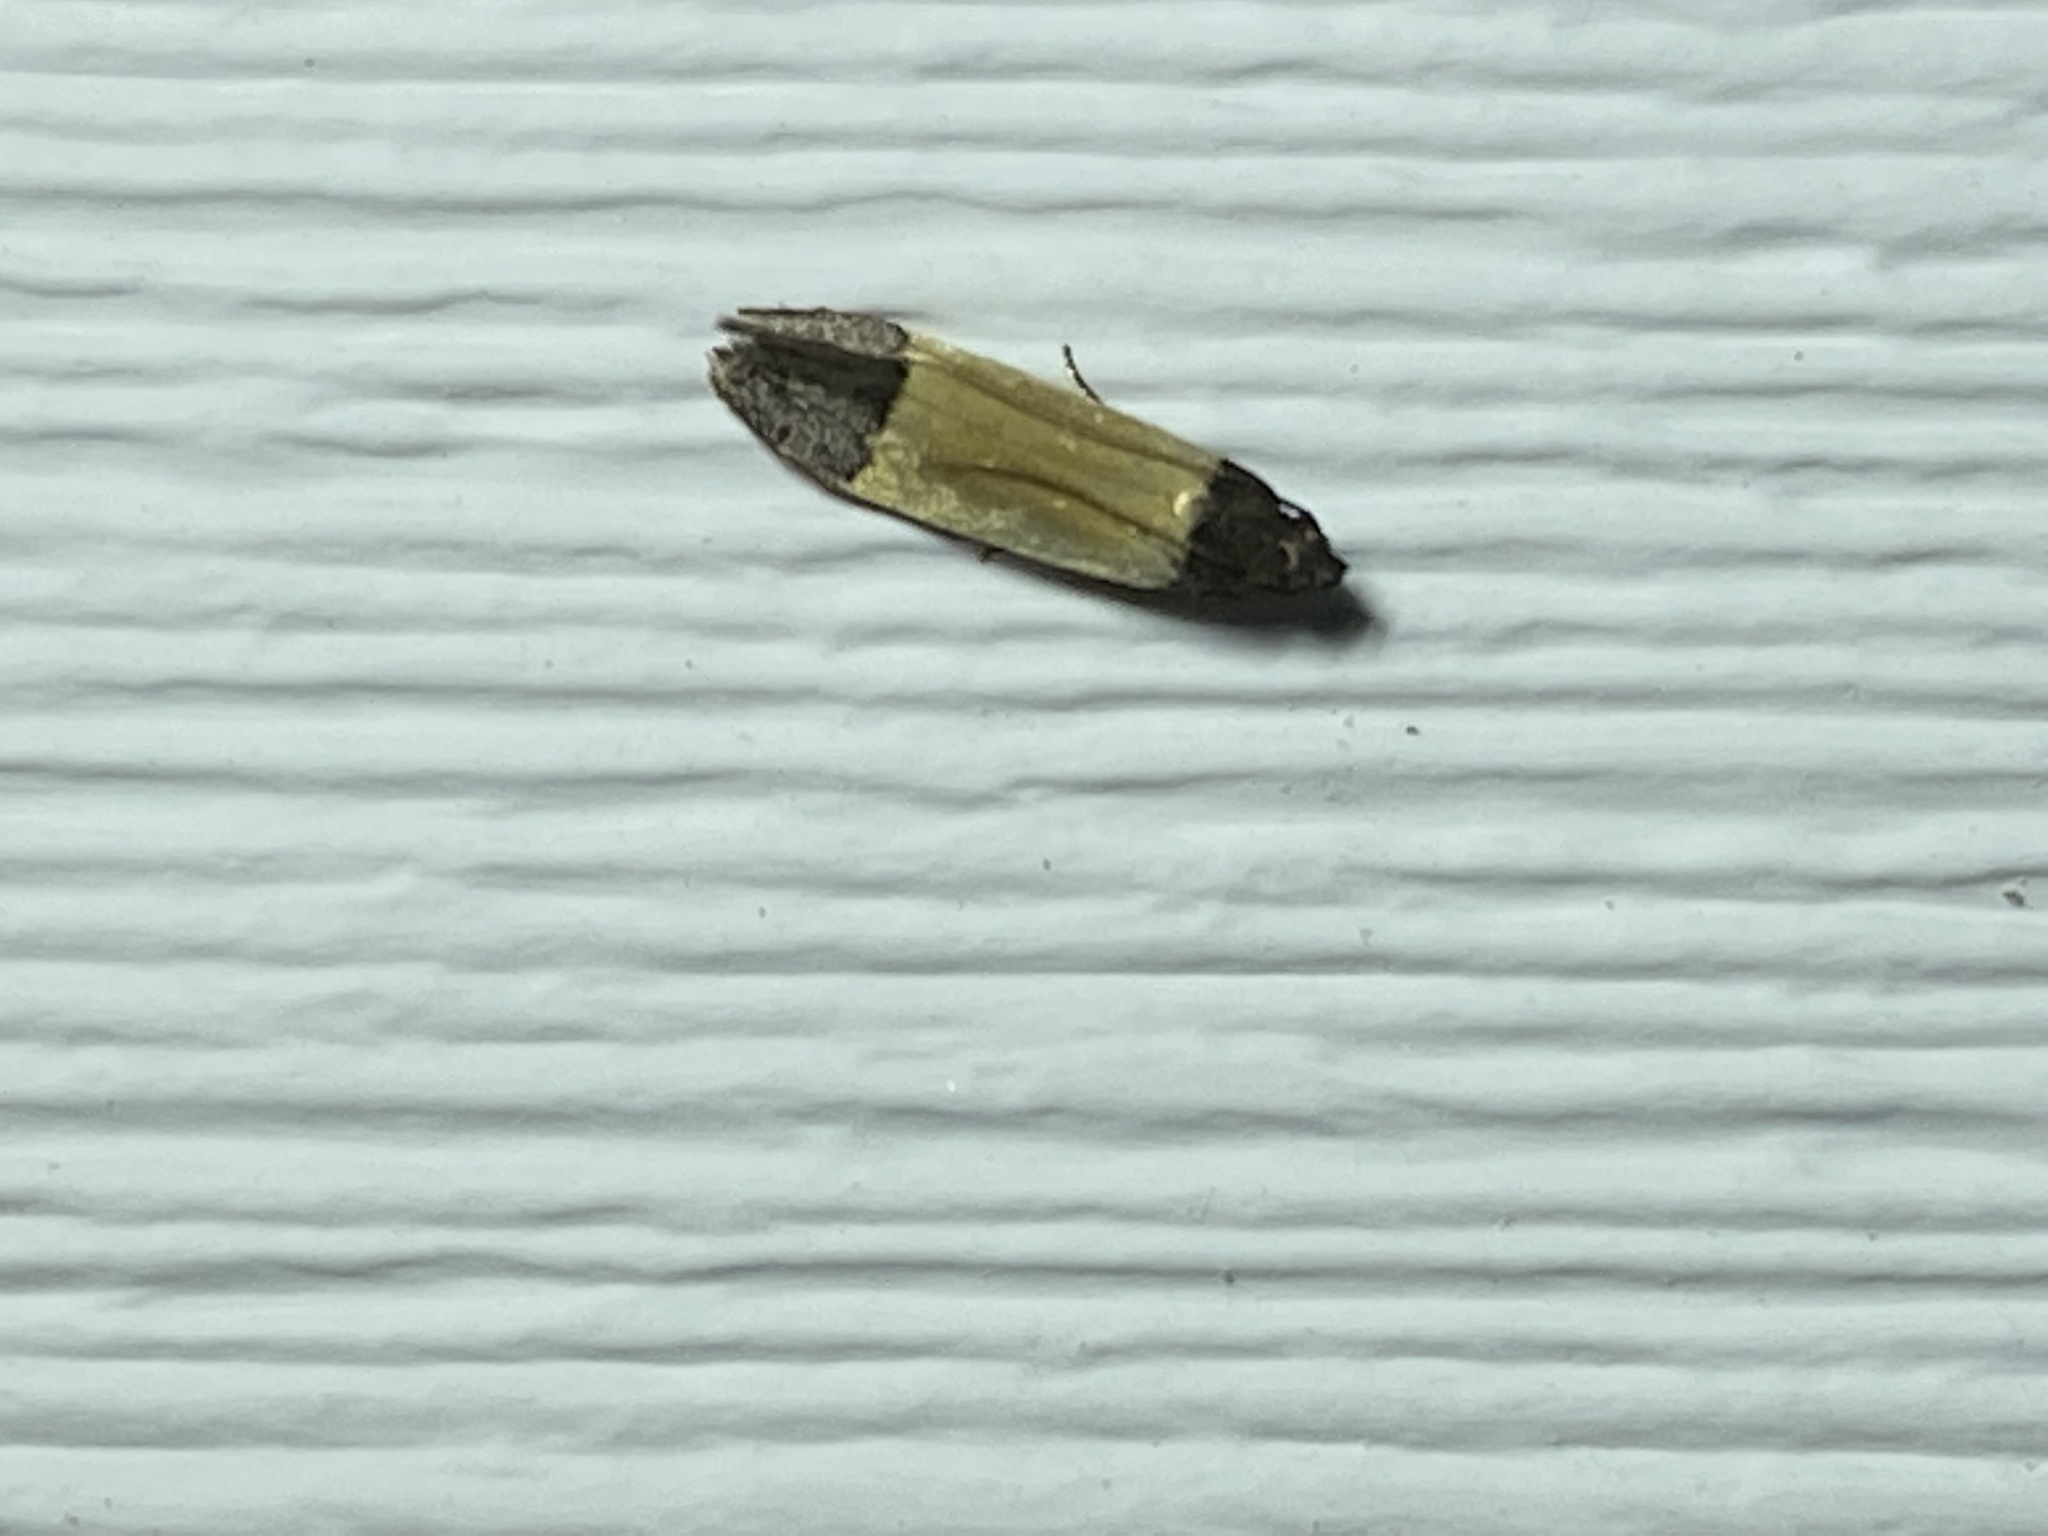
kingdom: Animalia
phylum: Arthropoda
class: Insecta
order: Lepidoptera
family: Gelechiidae
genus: Anacampsis
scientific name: Anacampsis coverdalella
